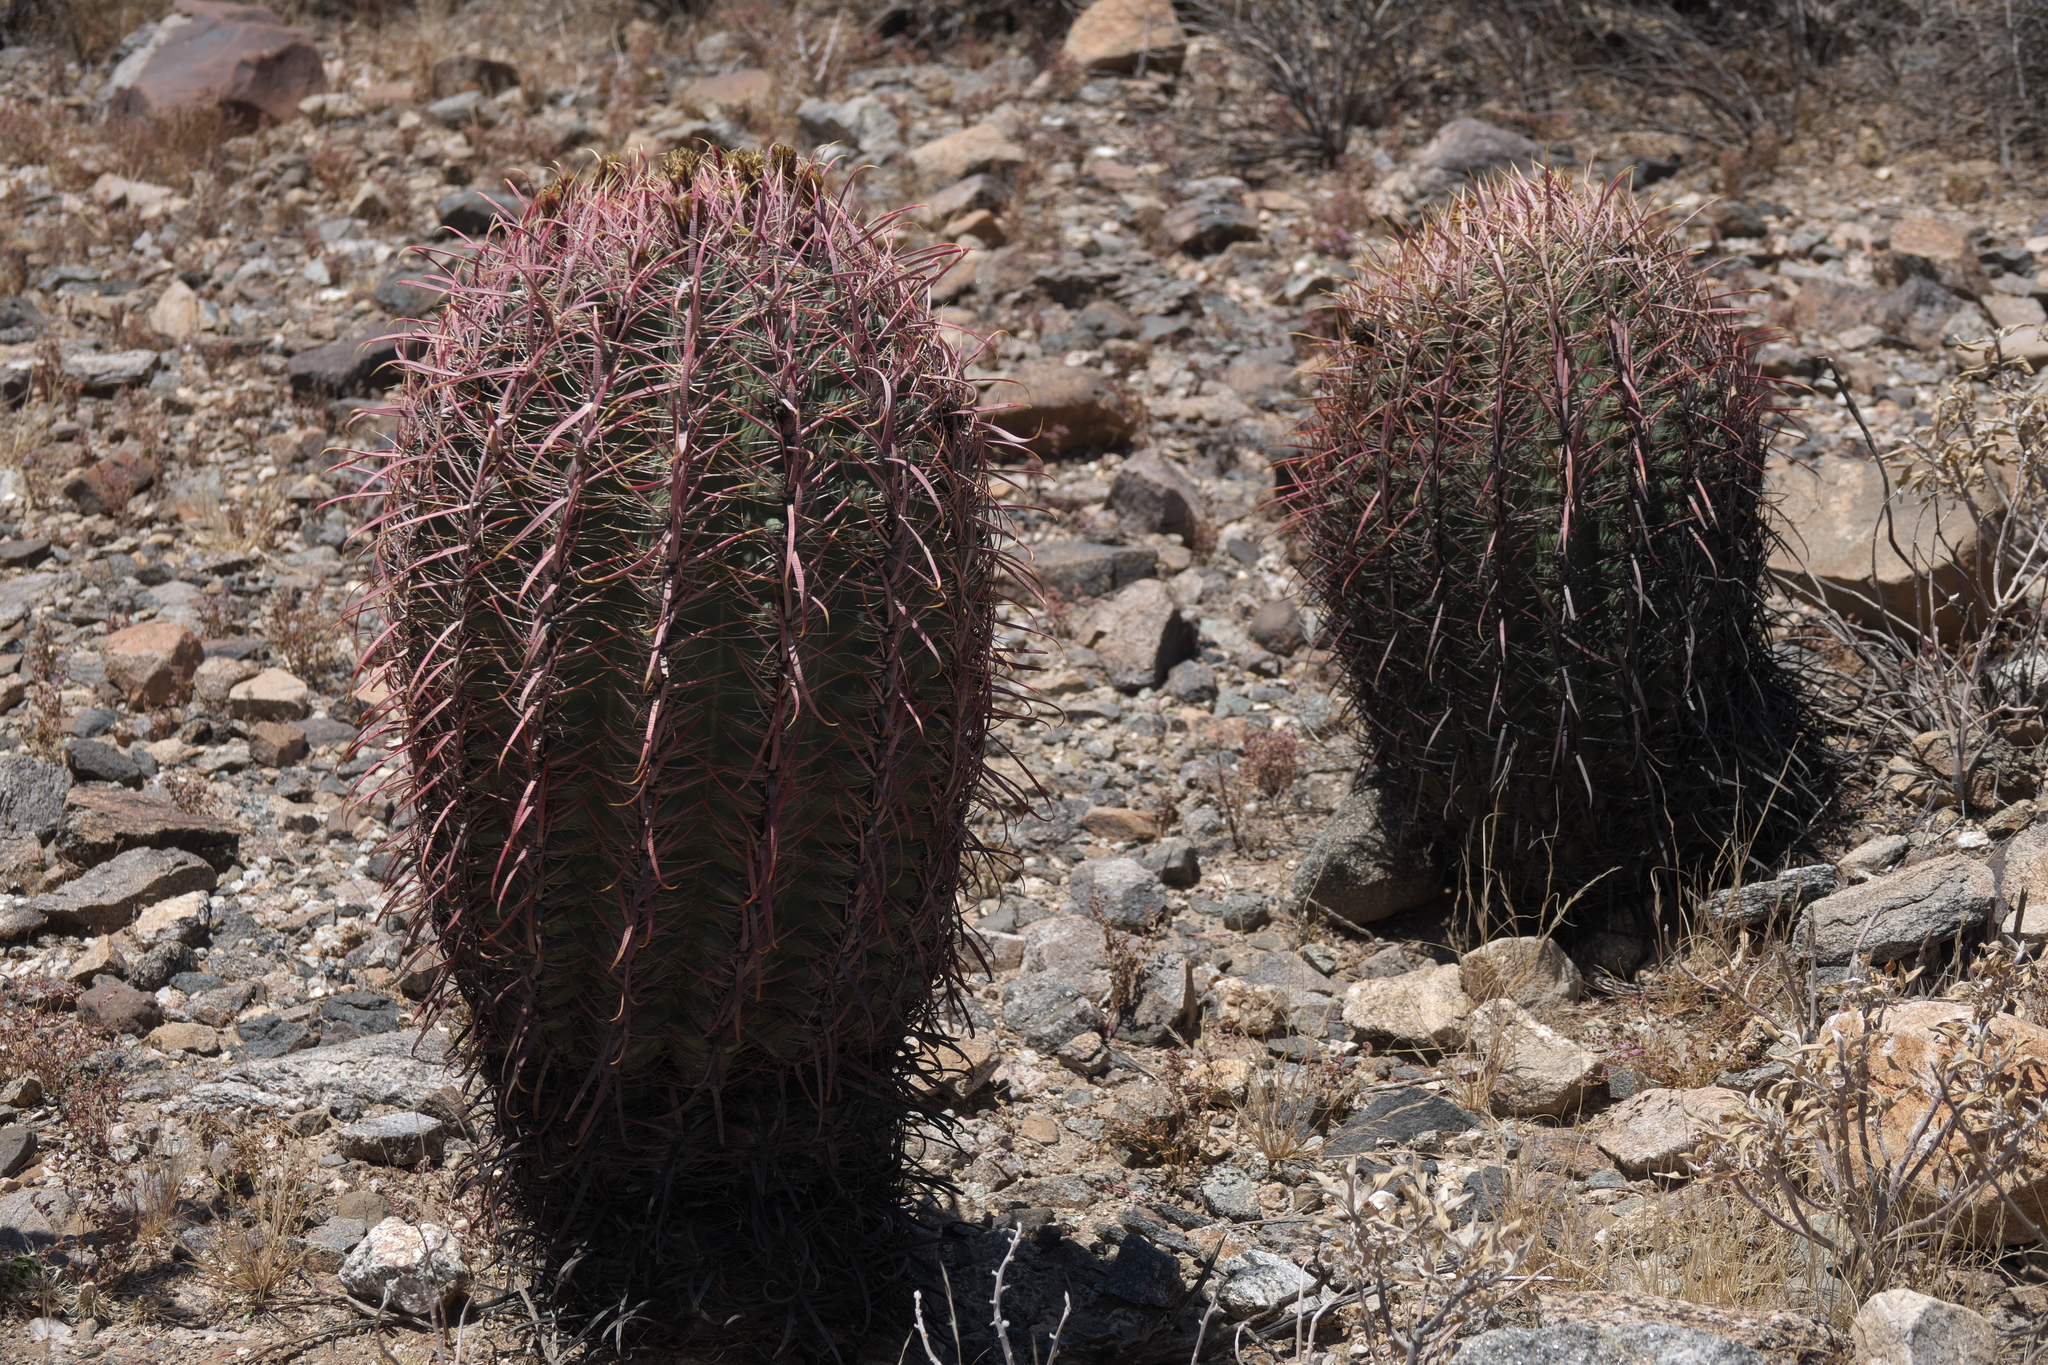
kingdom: Plantae
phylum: Tracheophyta
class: Magnoliopsida
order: Caryophyllales
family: Cactaceae
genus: Ferocactus
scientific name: Ferocactus cylindraceus
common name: California barrel cactus
